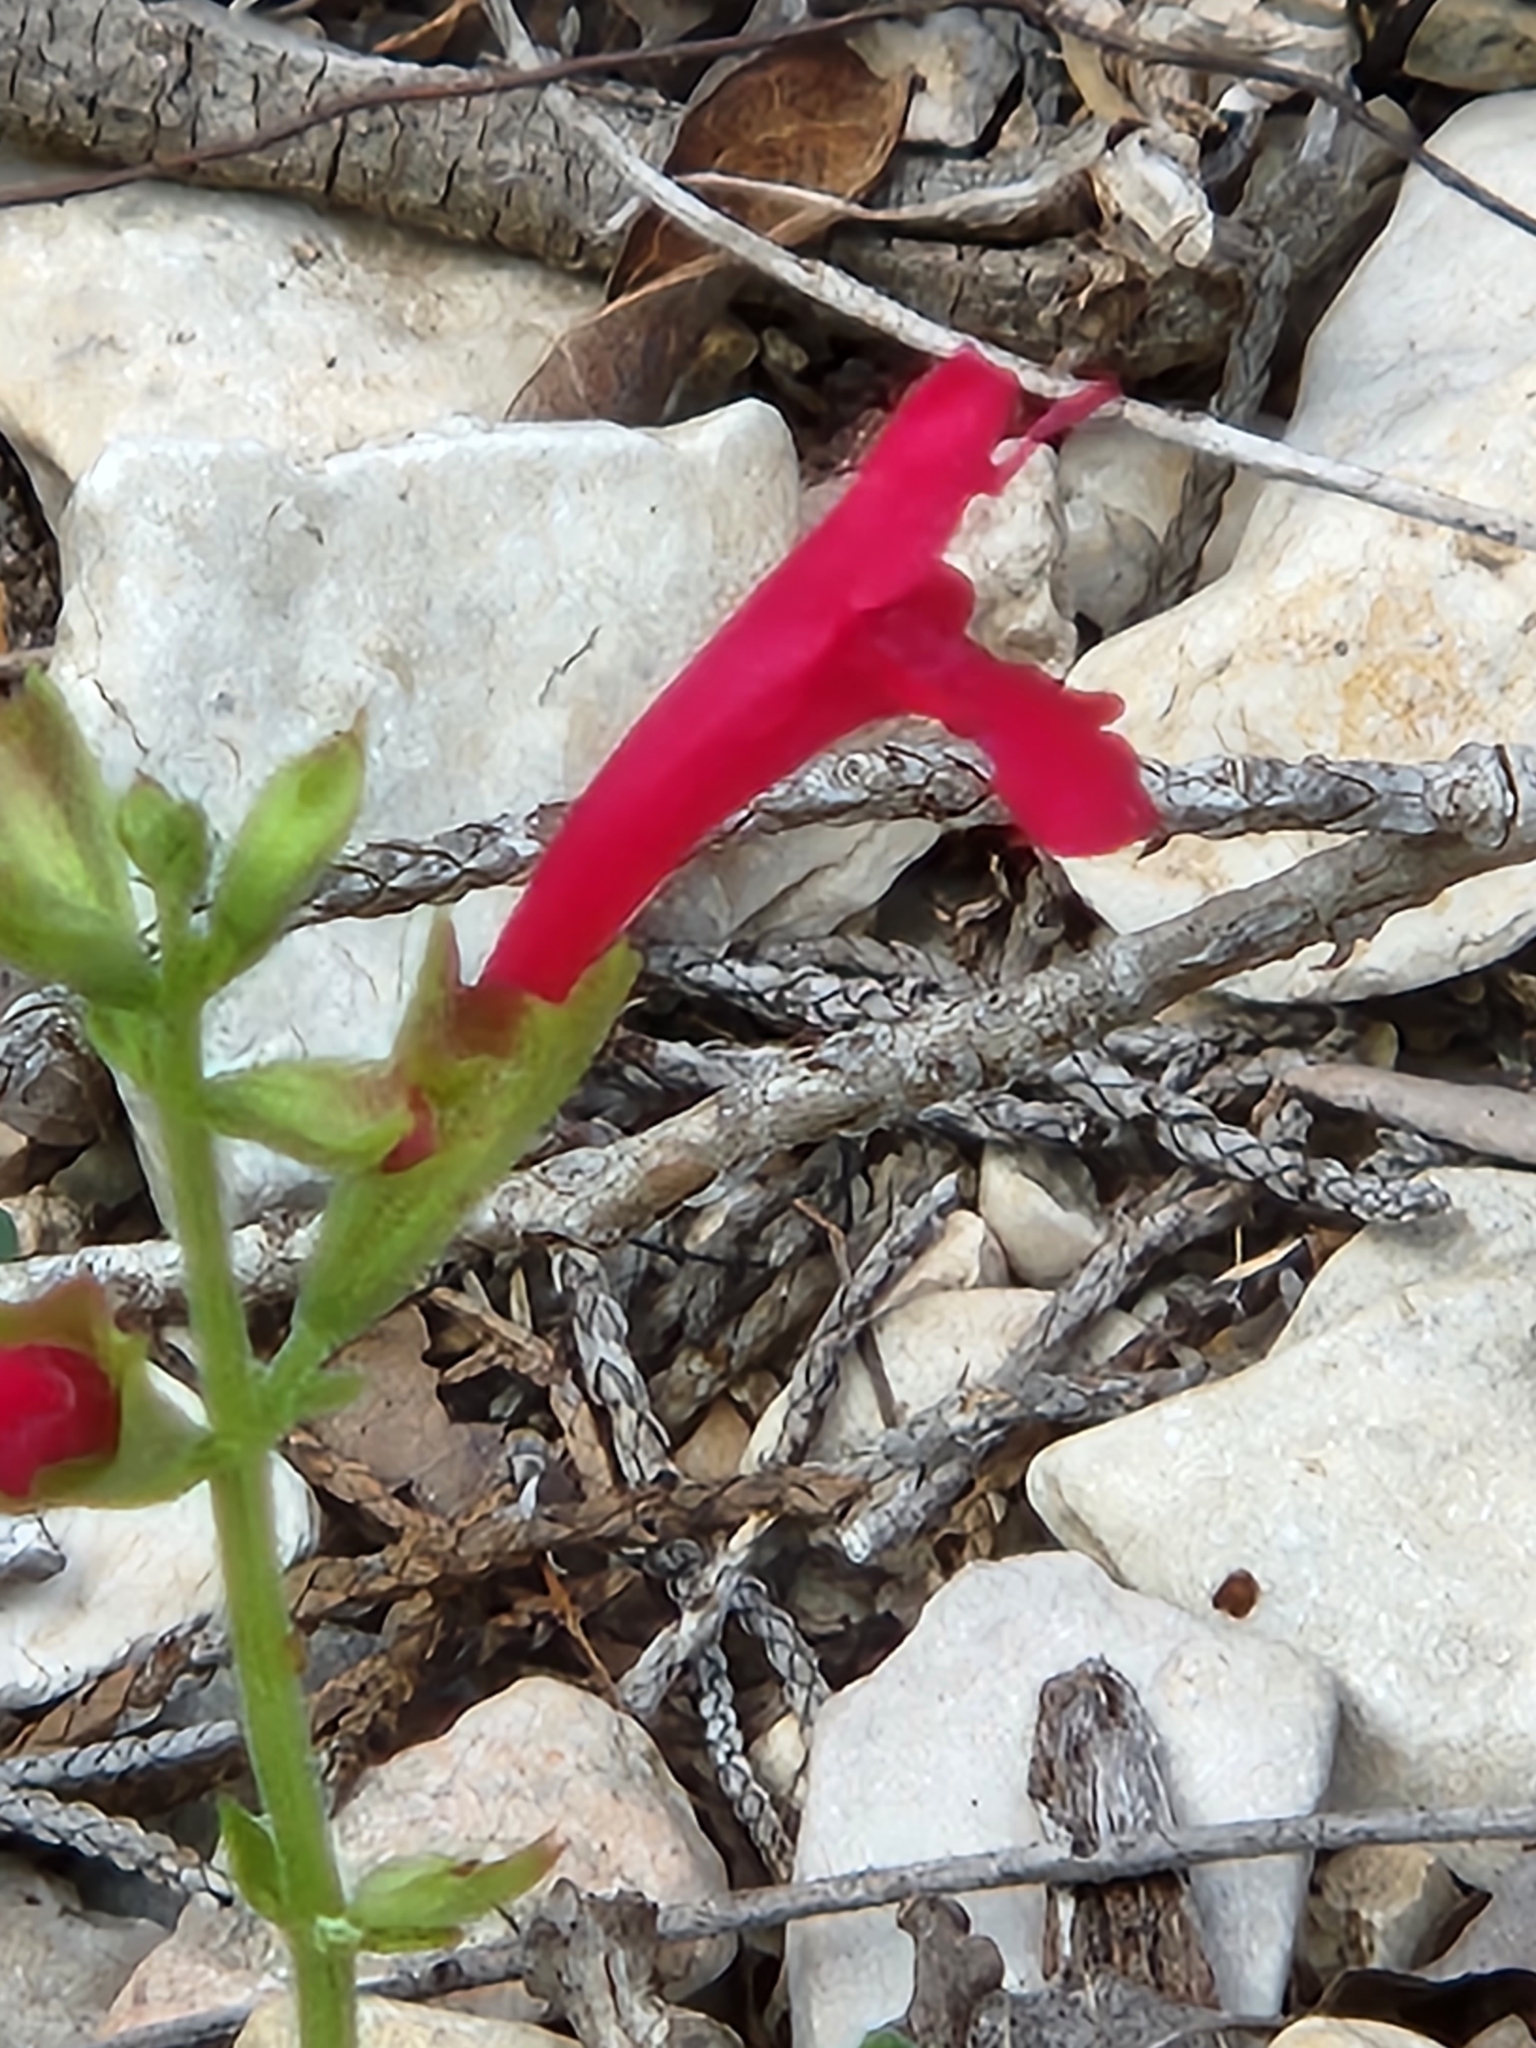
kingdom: Plantae
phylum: Tracheophyta
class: Magnoliopsida
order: Lamiales
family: Lamiaceae
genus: Salvia
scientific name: Salvia roemeriana
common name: Cedar sage
